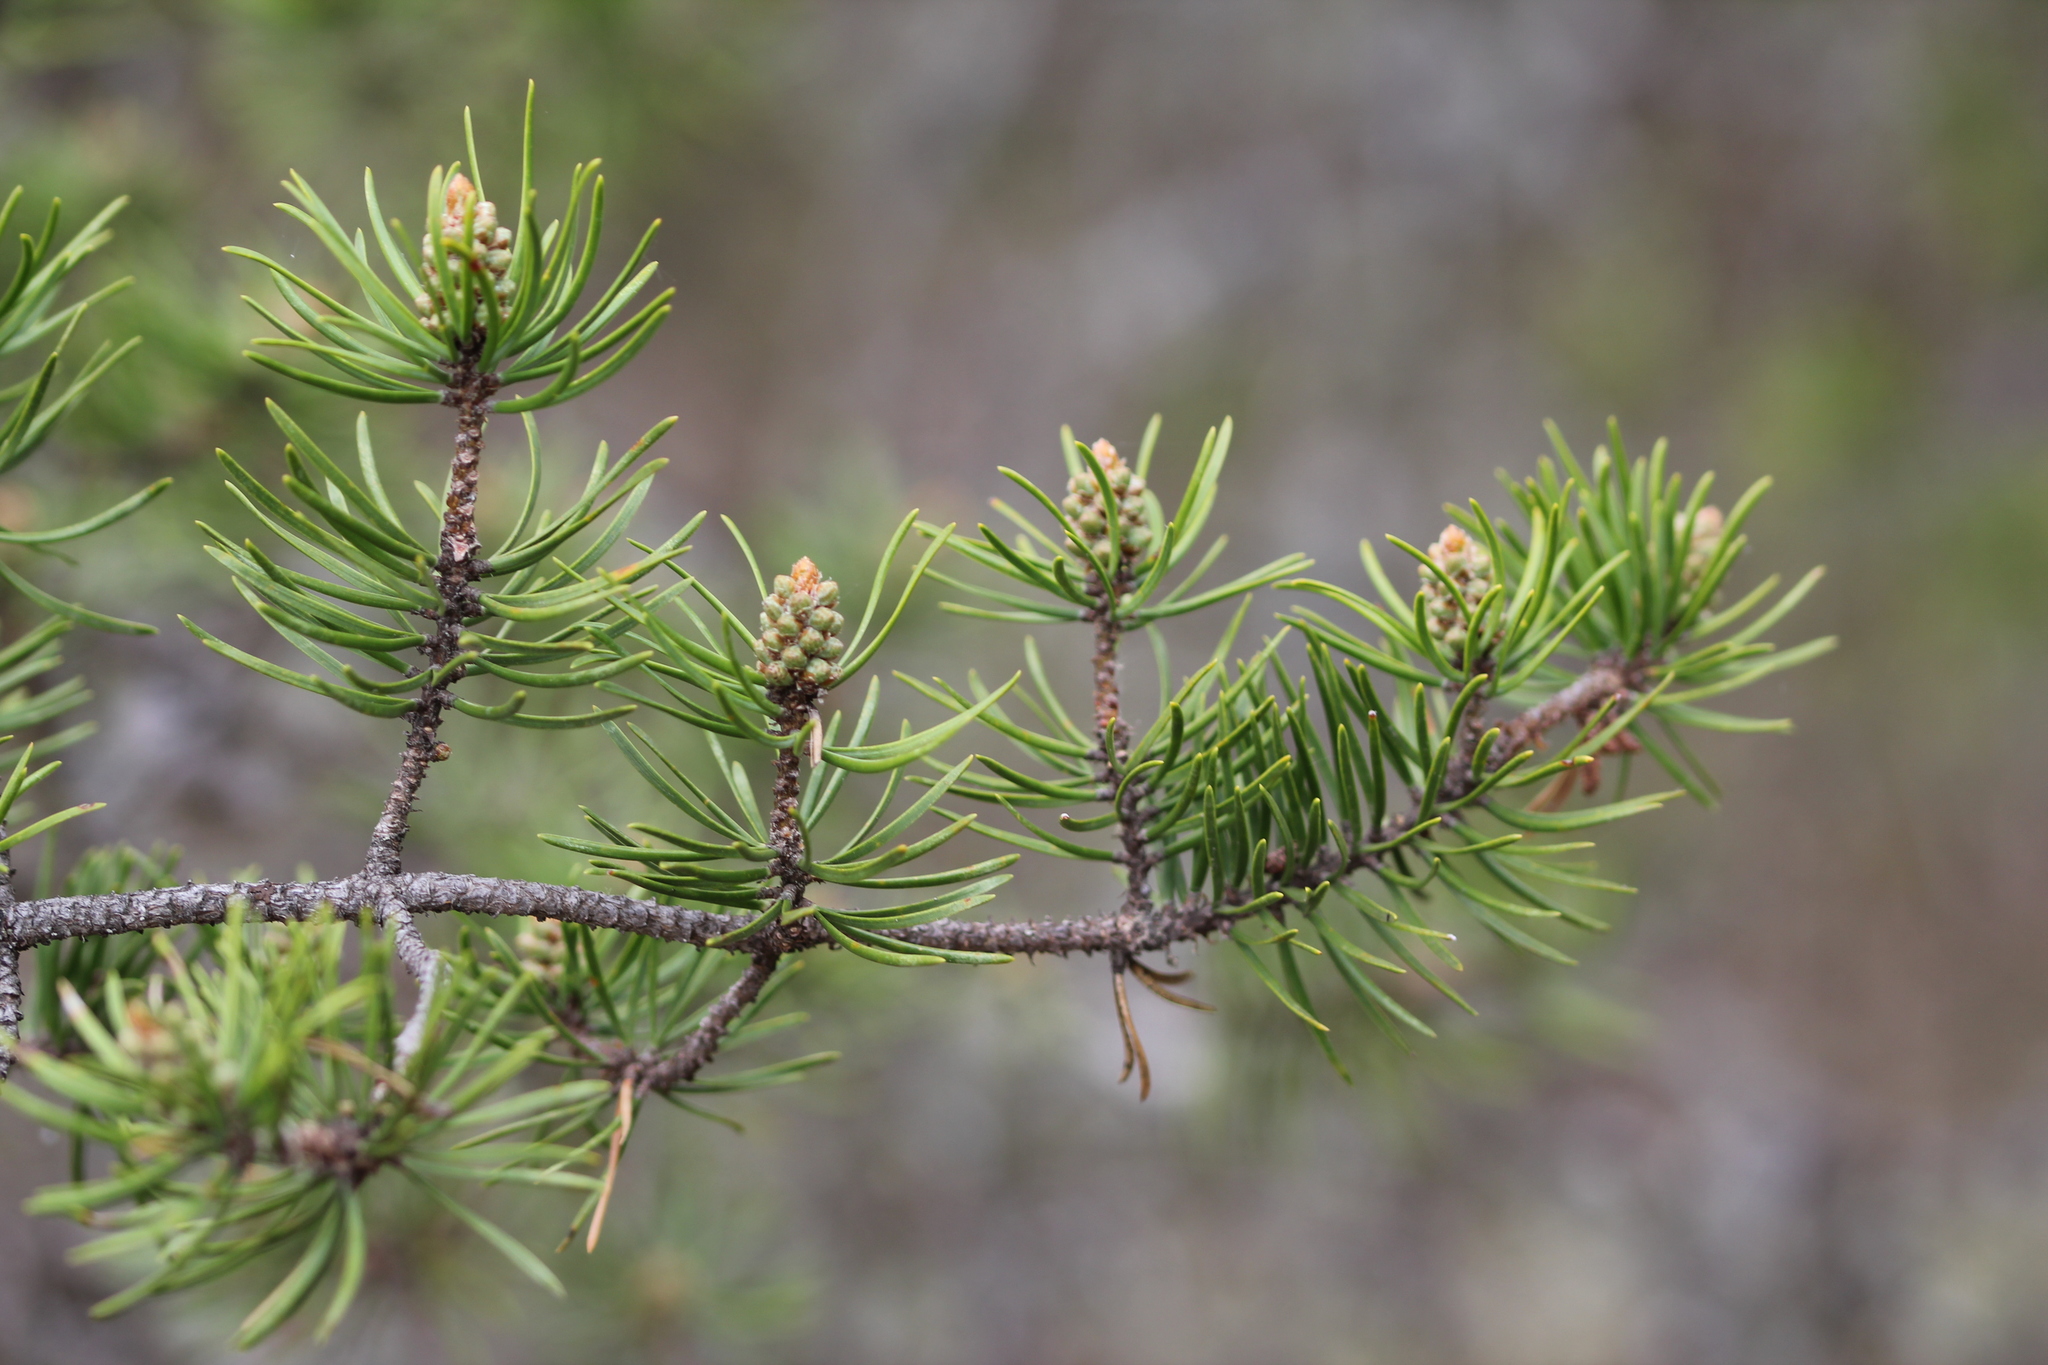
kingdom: Plantae
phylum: Tracheophyta
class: Pinopsida
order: Pinales
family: Pinaceae
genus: Pinus
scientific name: Pinus banksiana
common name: Jack pine
